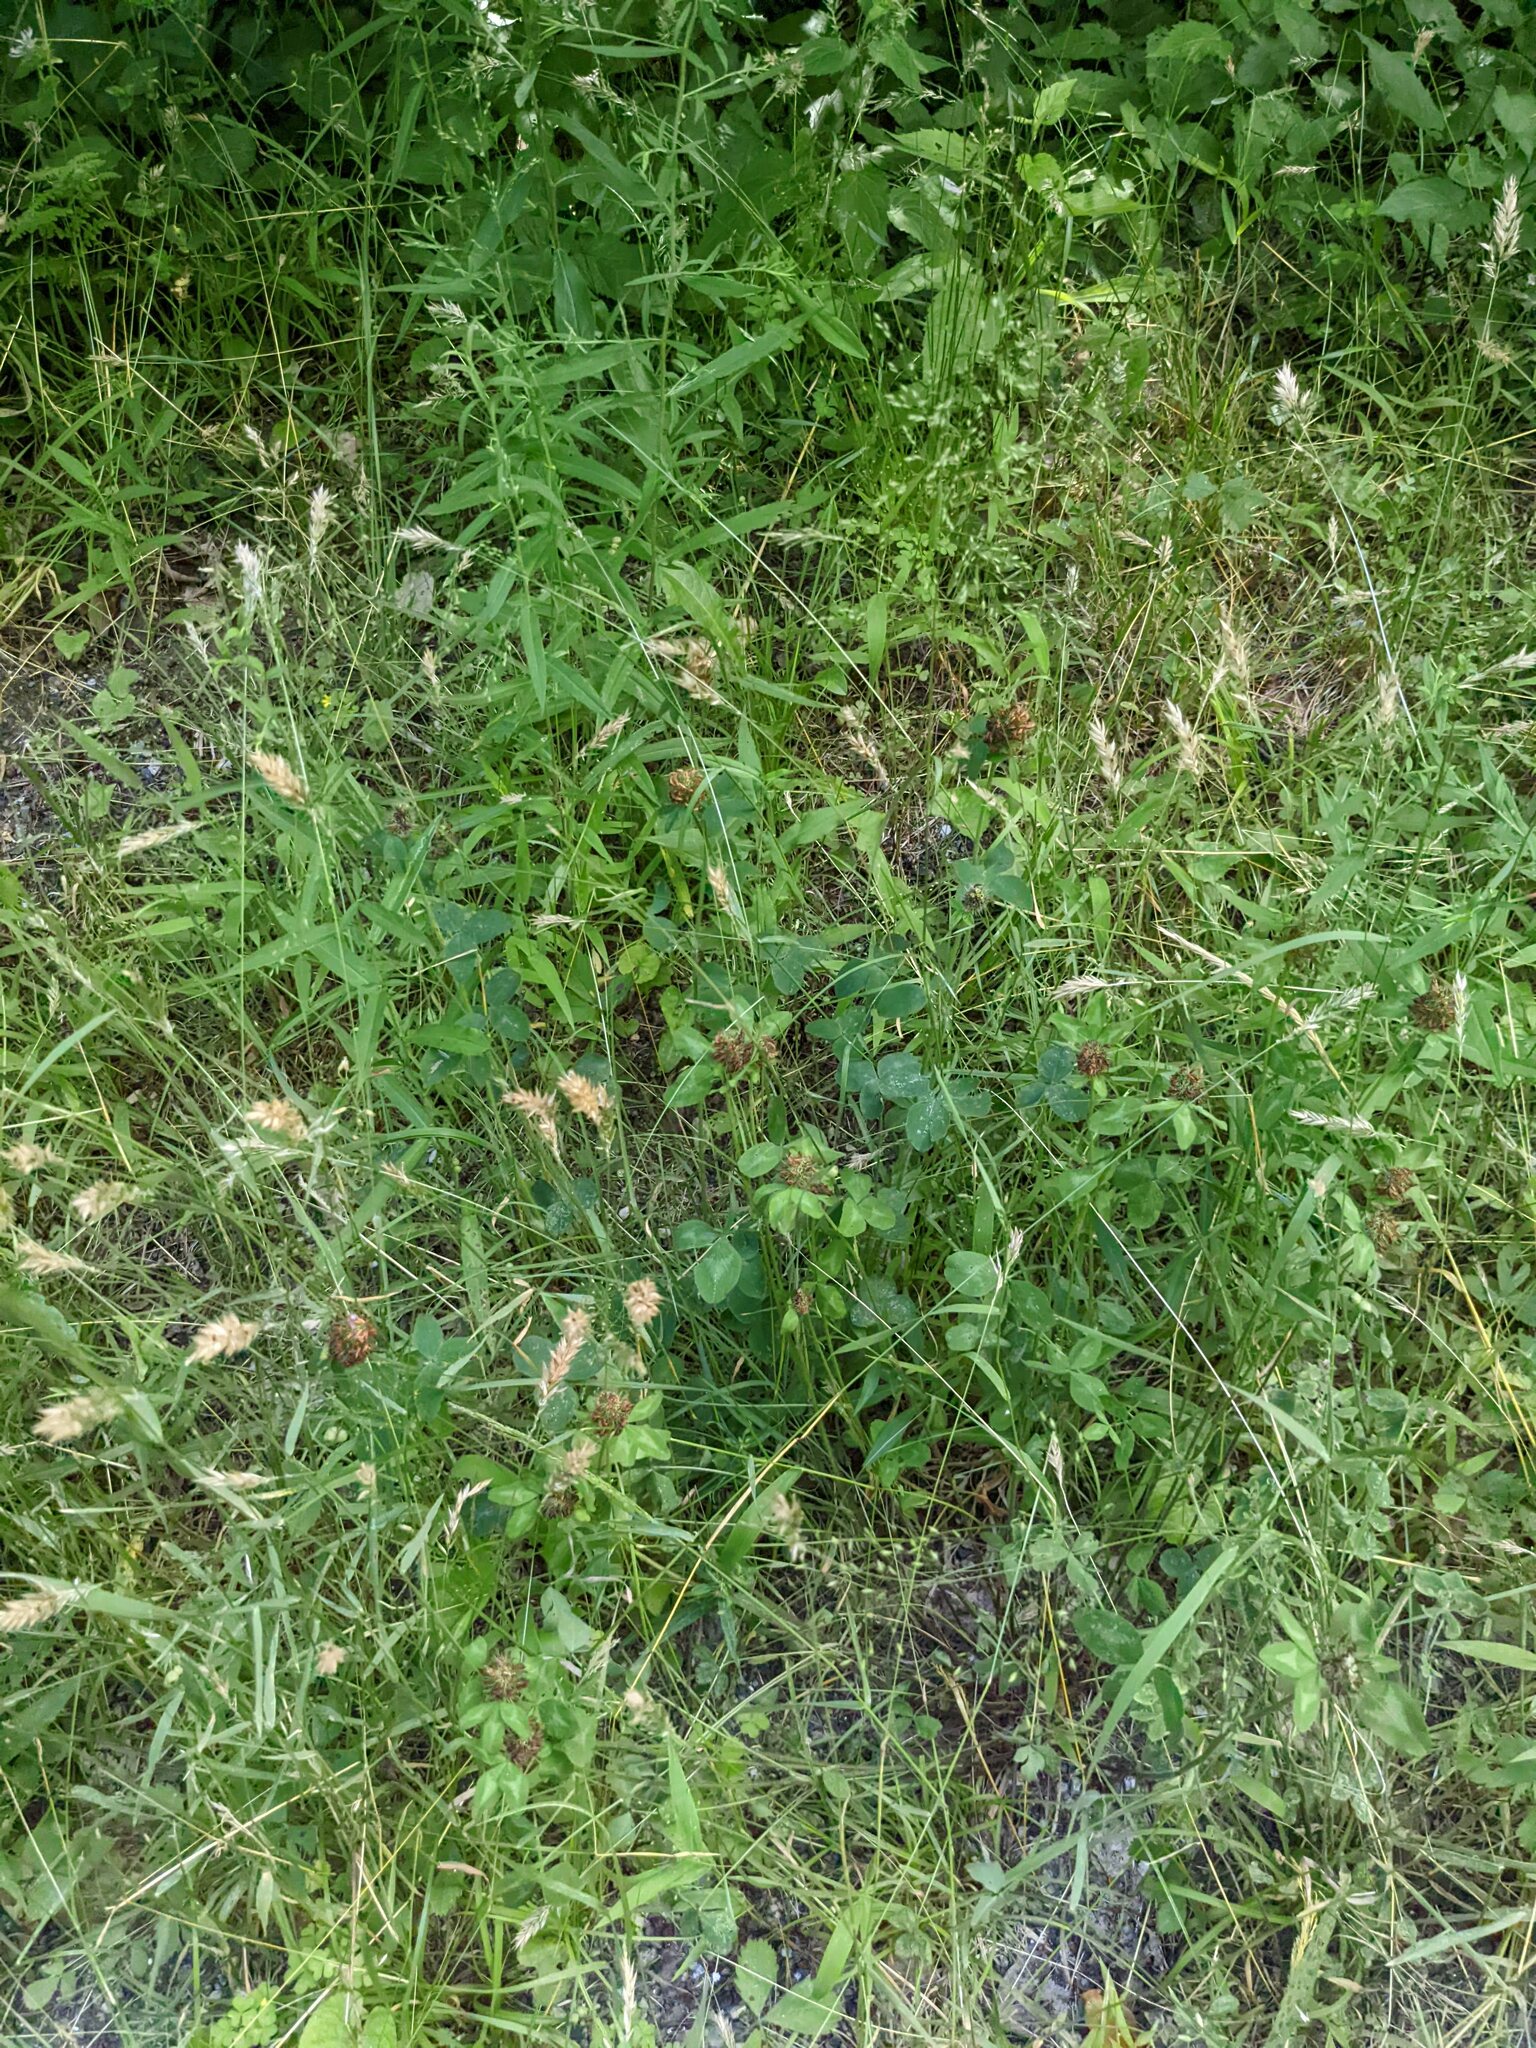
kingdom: Plantae
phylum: Tracheophyta
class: Magnoliopsida
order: Fabales
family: Fabaceae
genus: Trifolium
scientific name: Trifolium pratense
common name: Red clover
